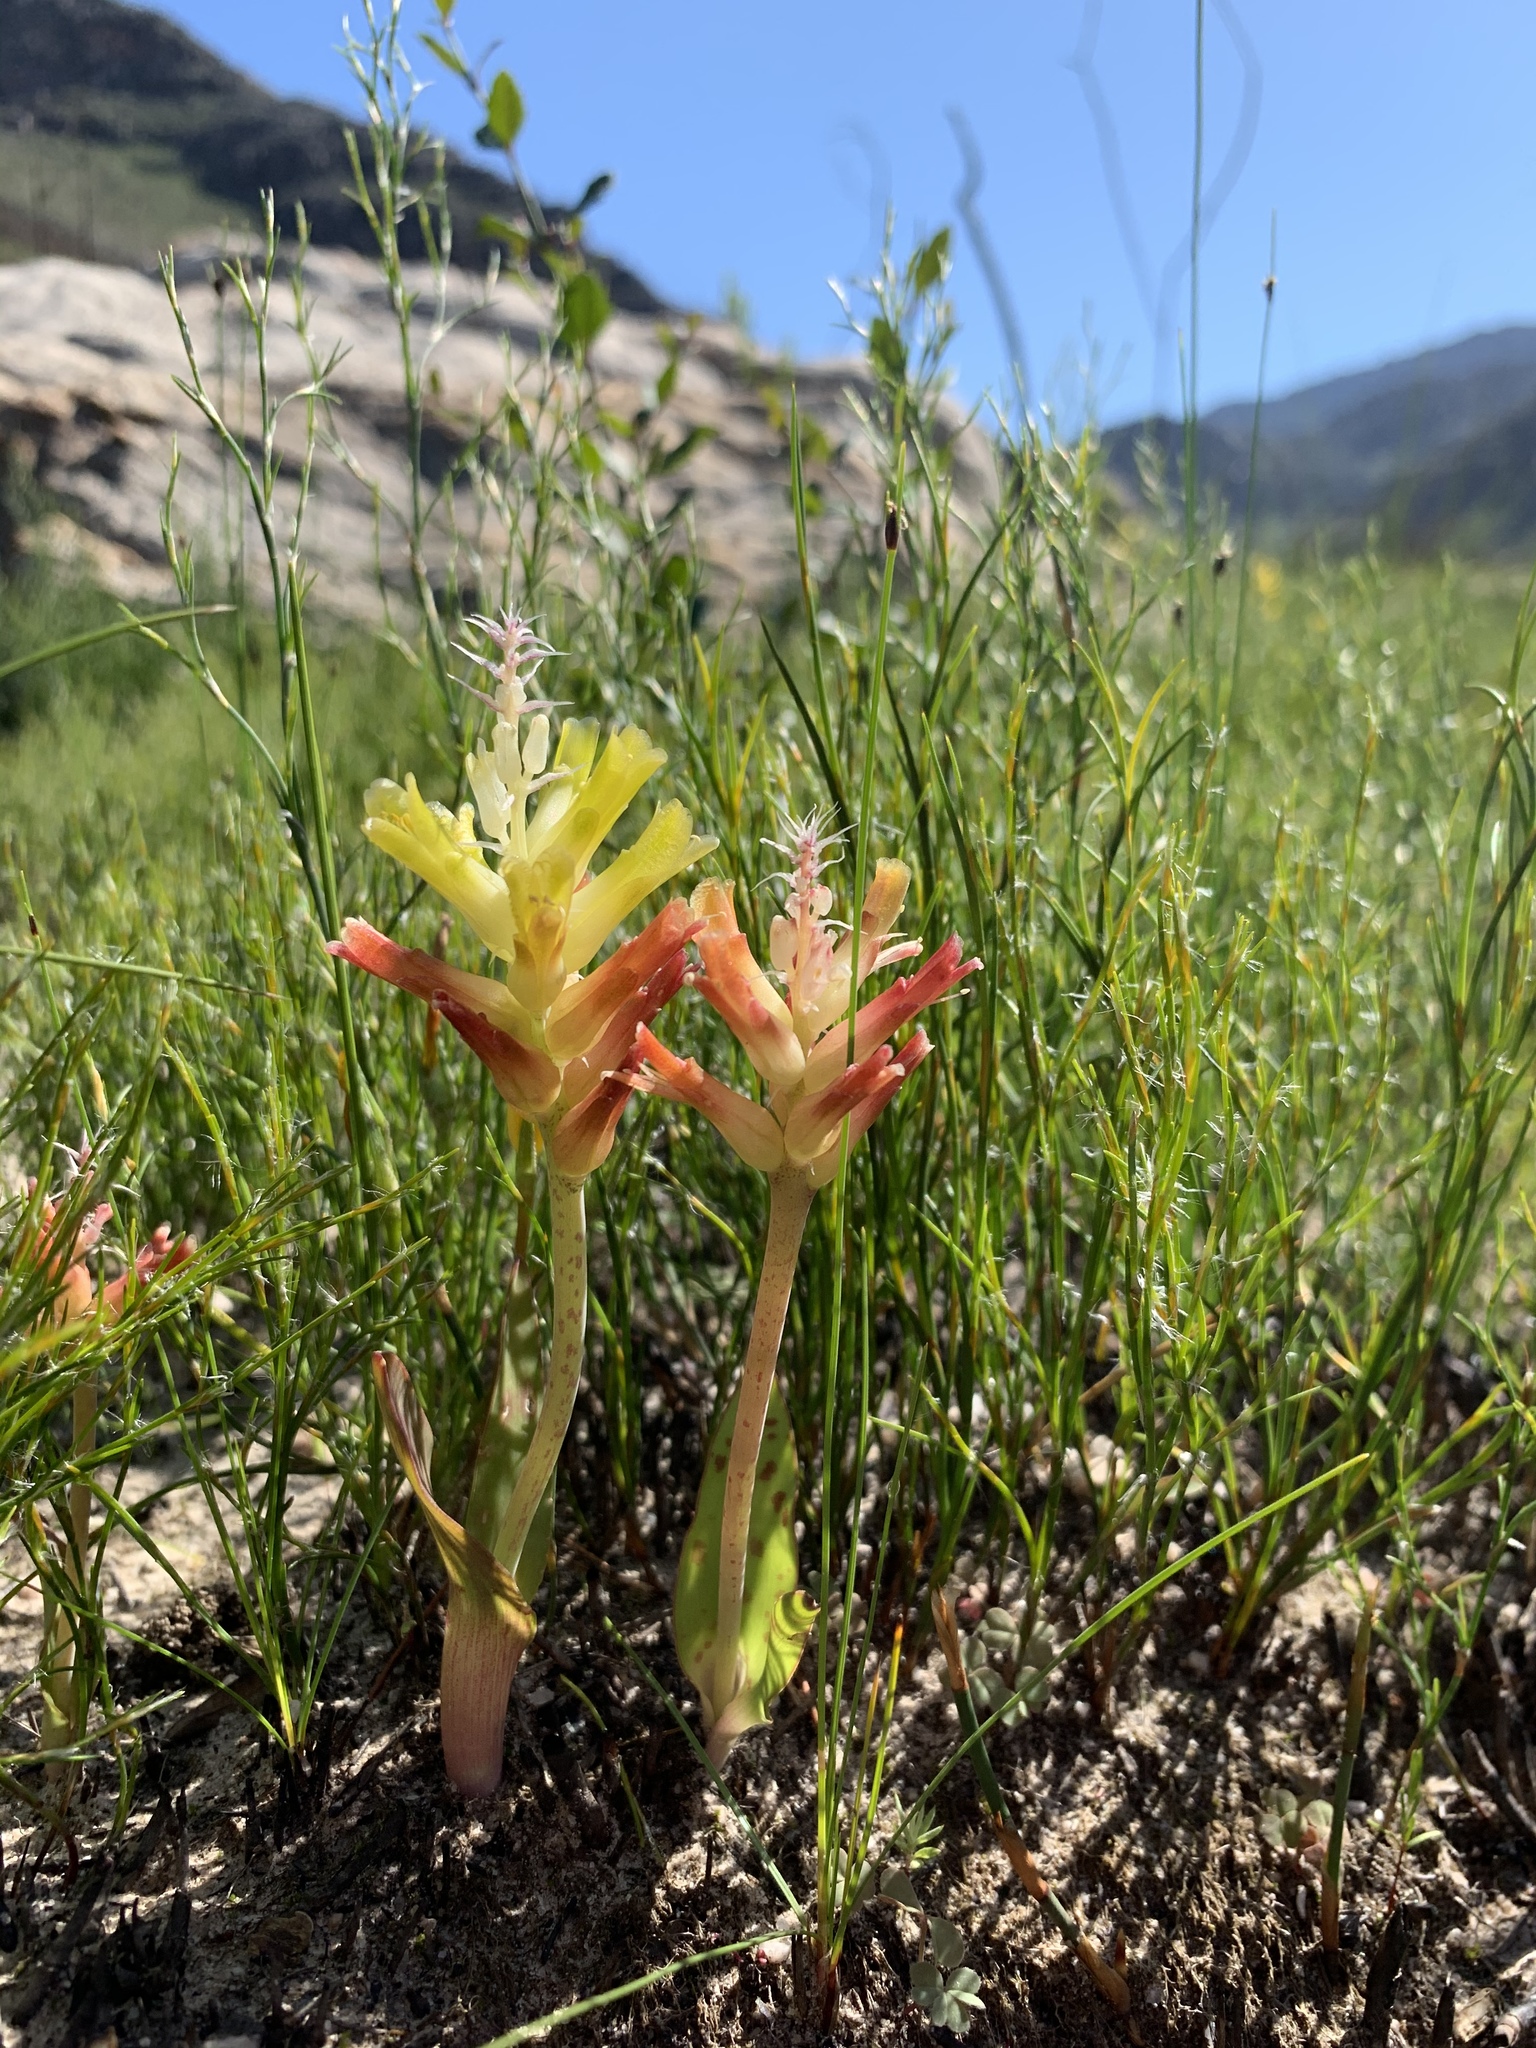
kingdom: Plantae
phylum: Tracheophyta
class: Liliopsida
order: Asparagales
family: Asparagaceae
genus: Lachenalia
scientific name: Lachenalia orchioides
